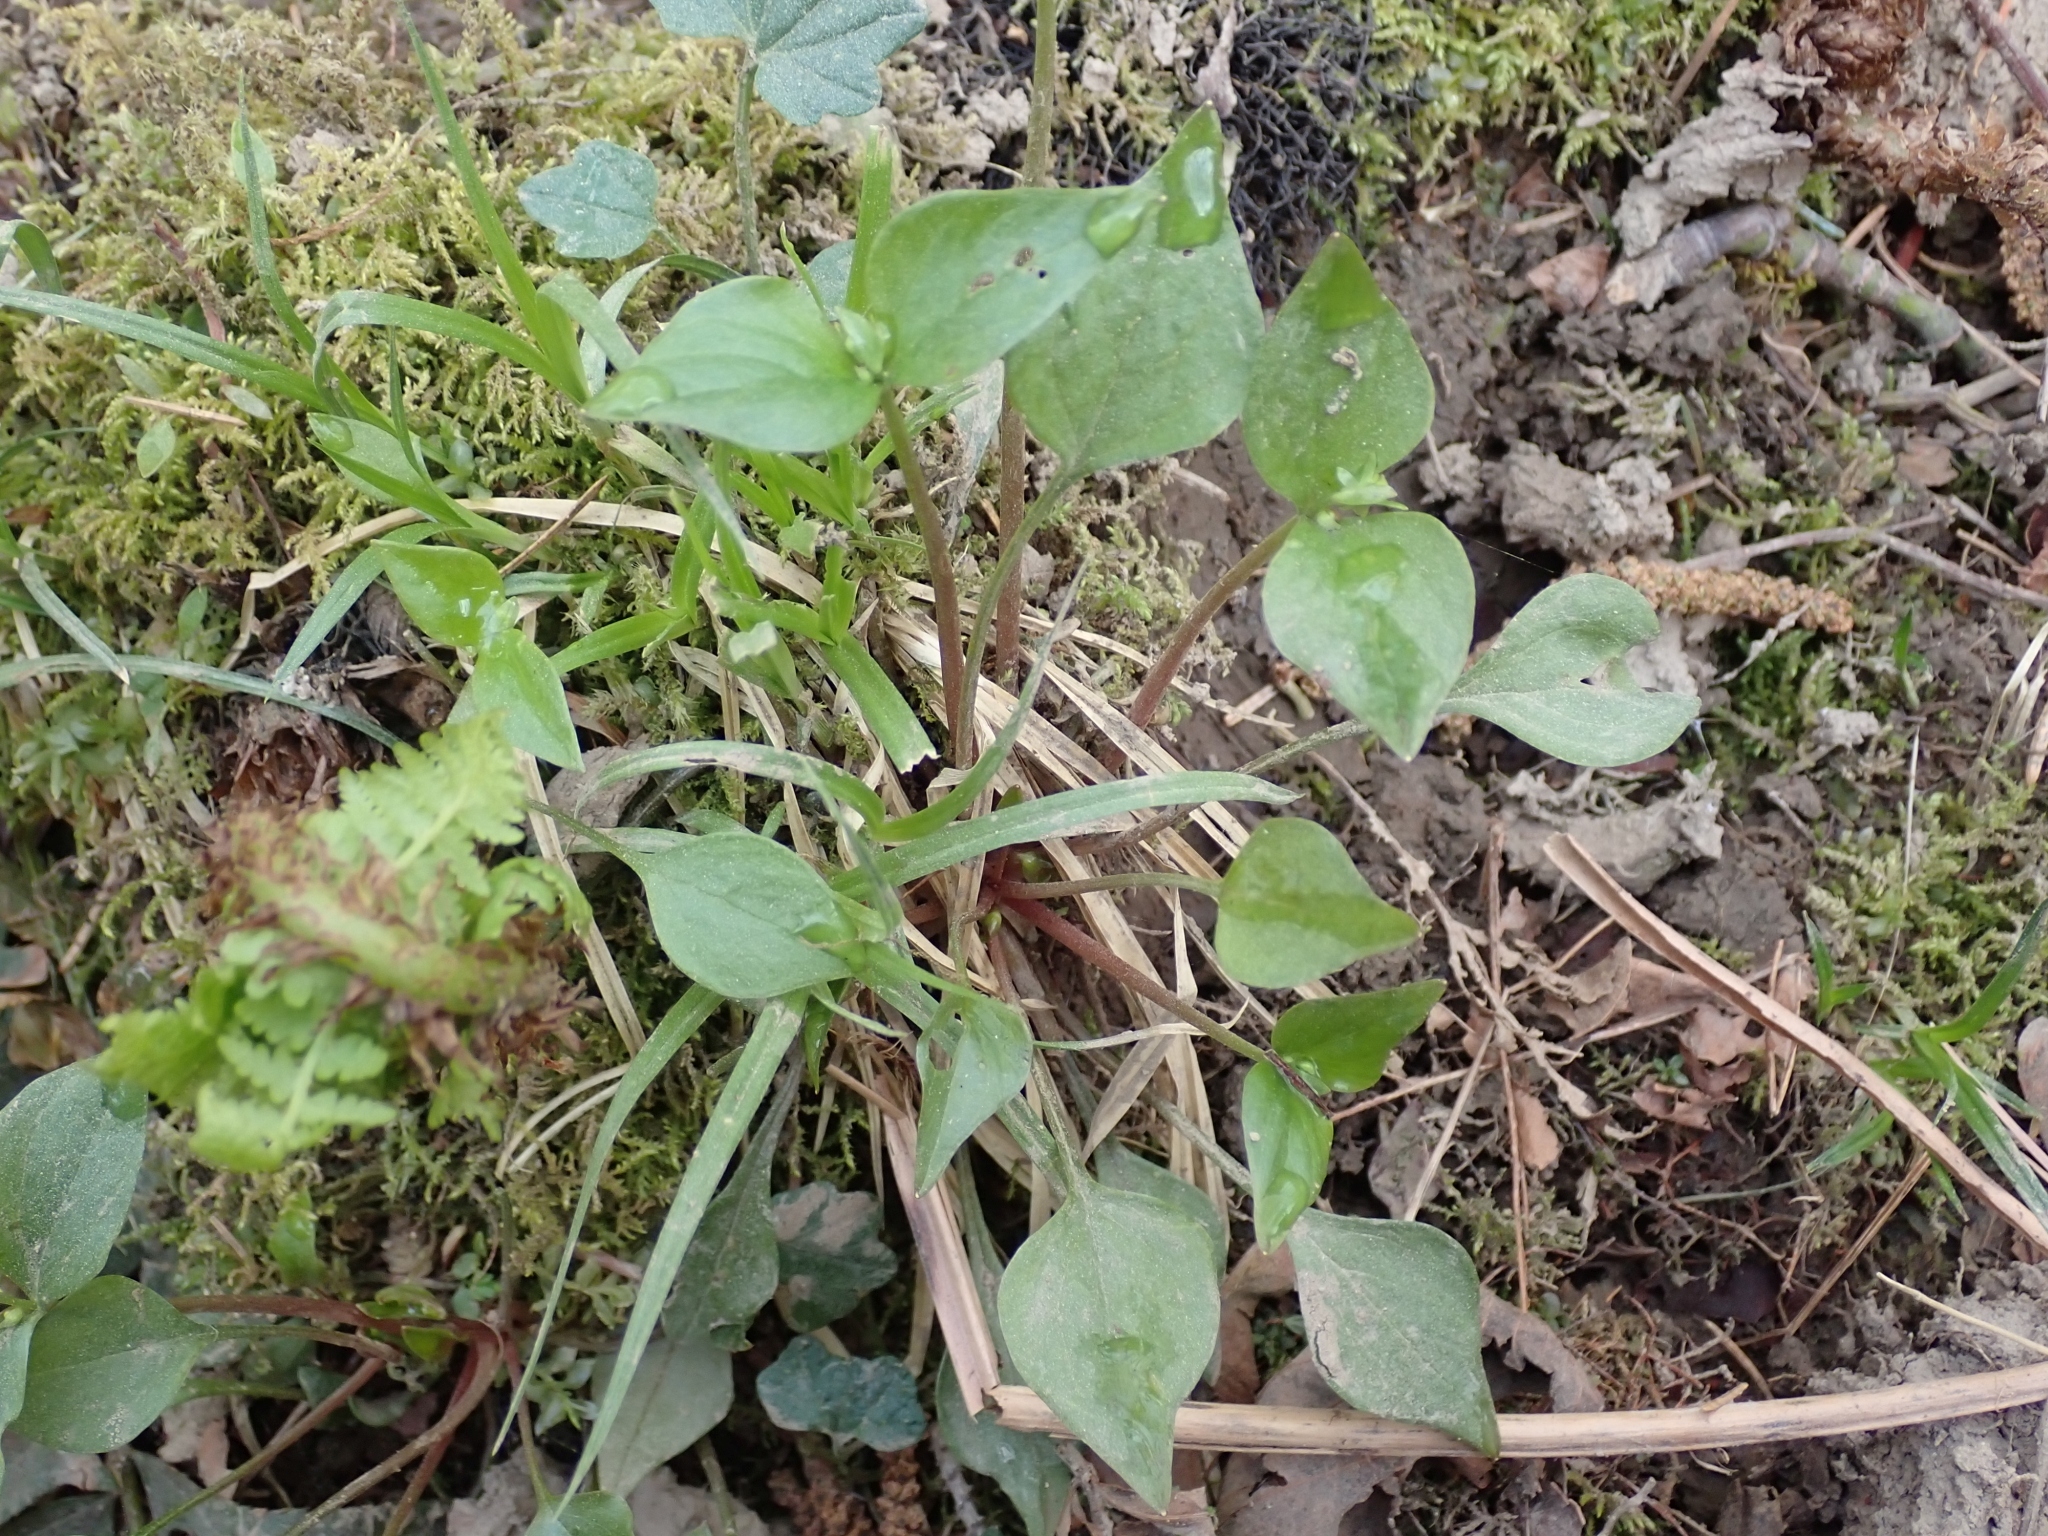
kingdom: Plantae
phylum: Tracheophyta
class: Magnoliopsida
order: Caryophyllales
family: Montiaceae
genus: Claytonia
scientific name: Claytonia sibirica
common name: Pink purslane
